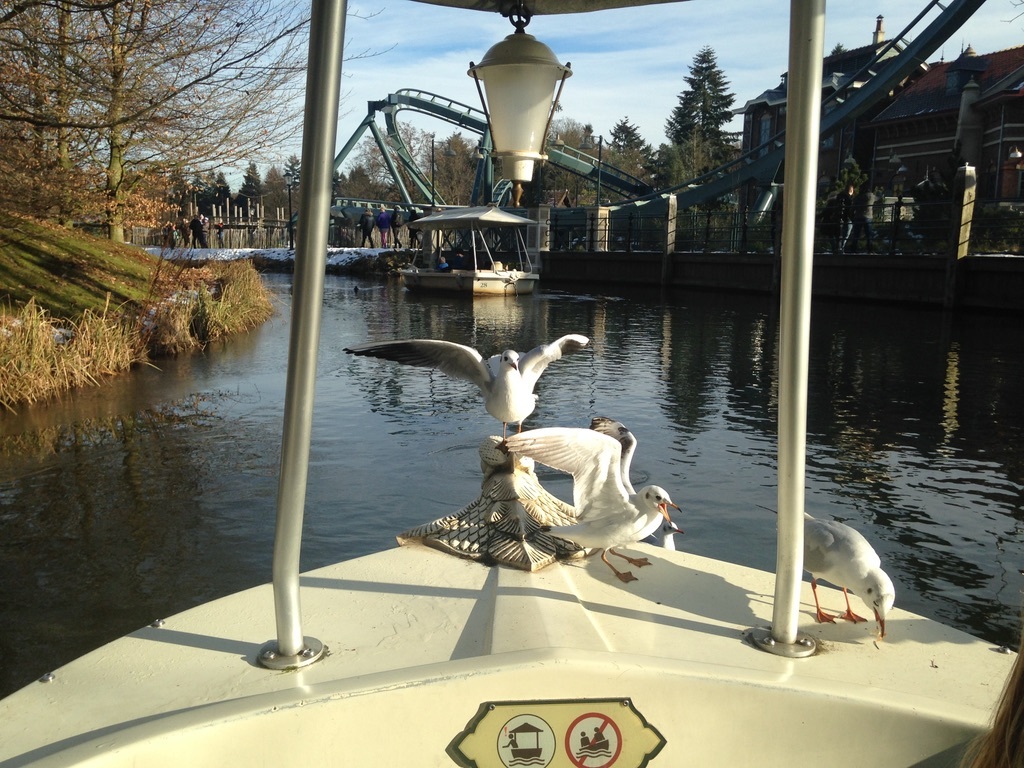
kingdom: Animalia
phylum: Chordata
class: Aves
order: Charadriiformes
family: Laridae
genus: Chroicocephalus
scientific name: Chroicocephalus ridibundus
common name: Black-headed gull
